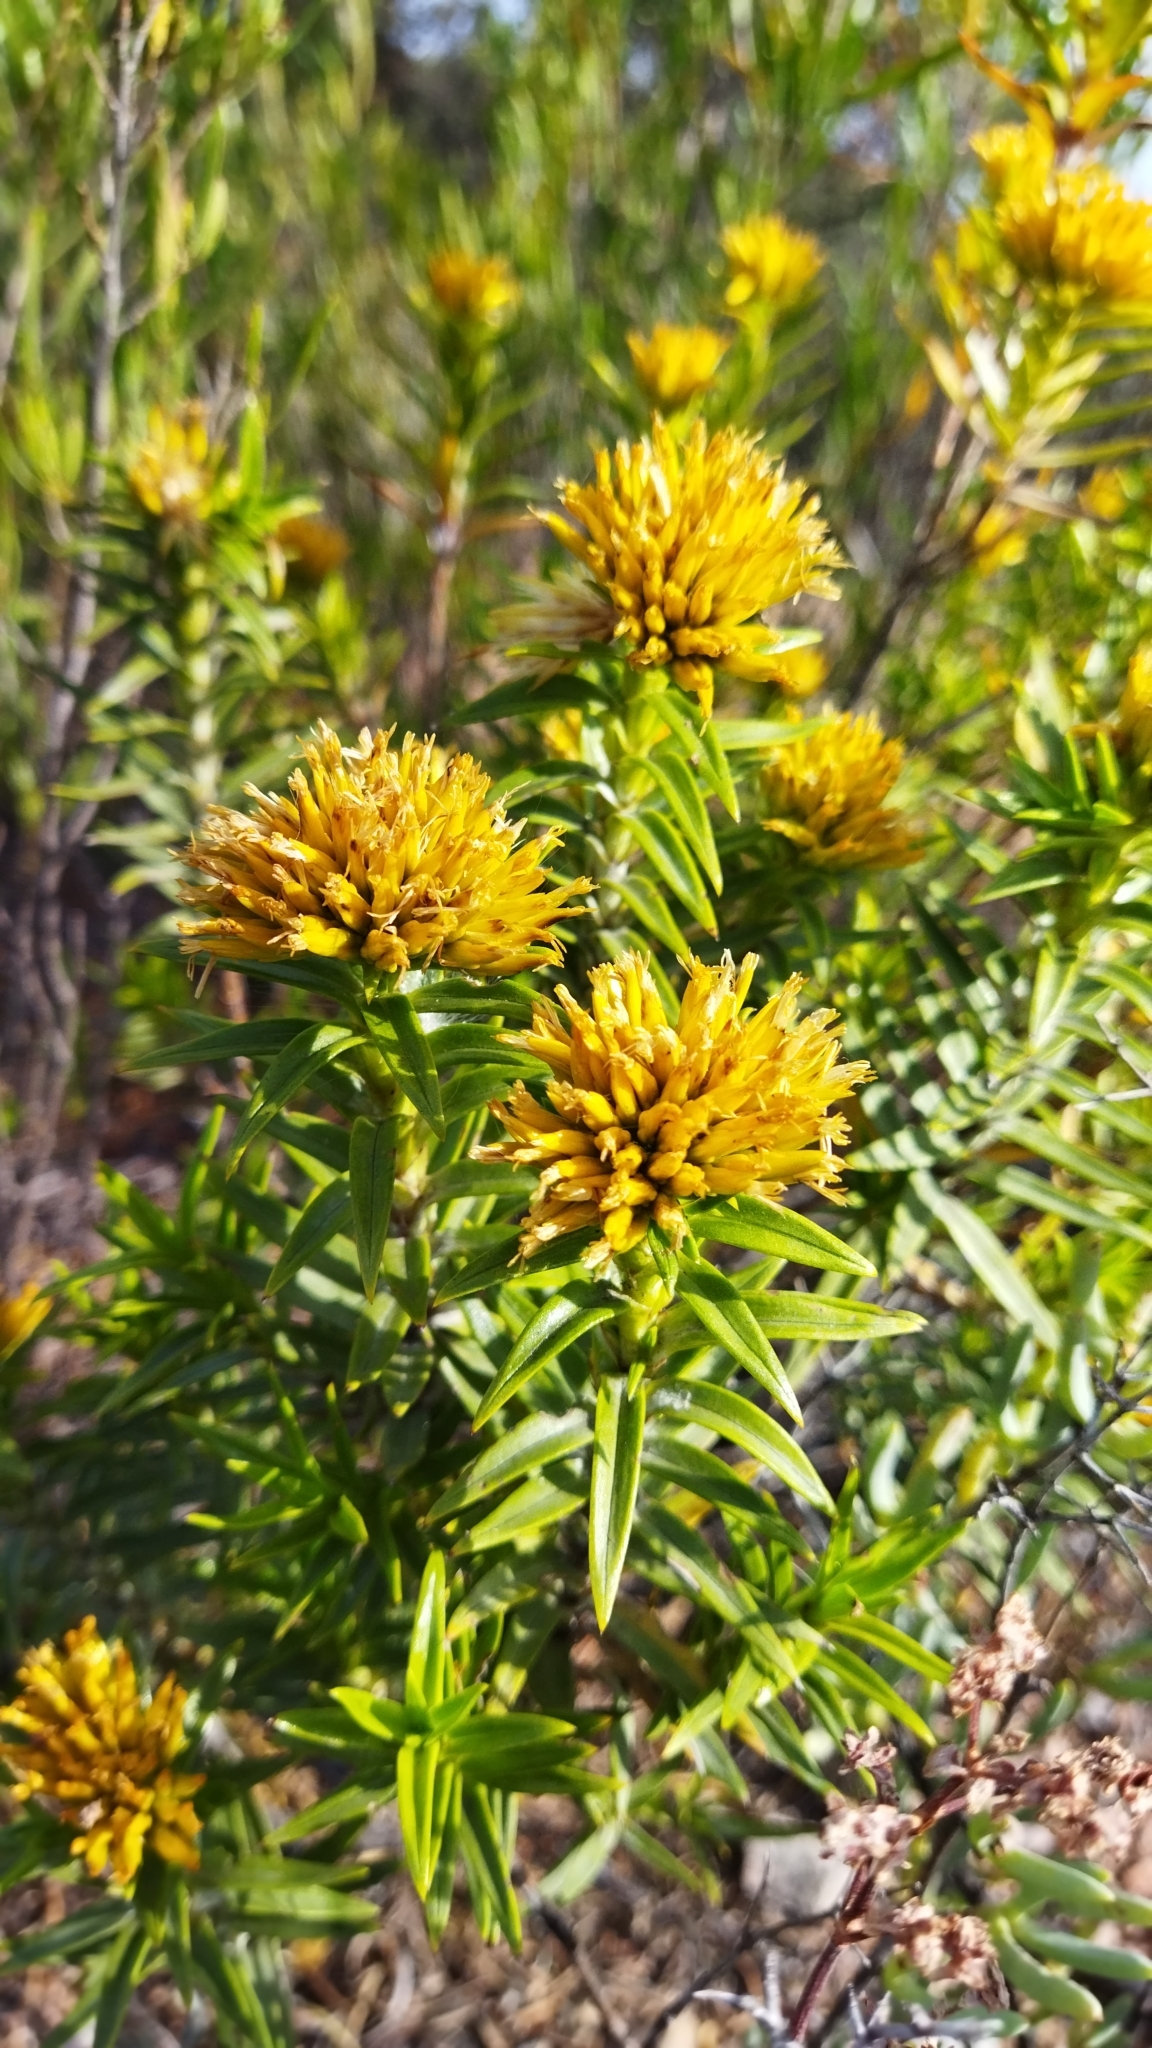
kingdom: Plantae
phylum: Tracheophyta
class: Magnoliopsida
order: Asterales
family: Asteraceae
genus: Pteronia
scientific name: Pteronia fasciculata
